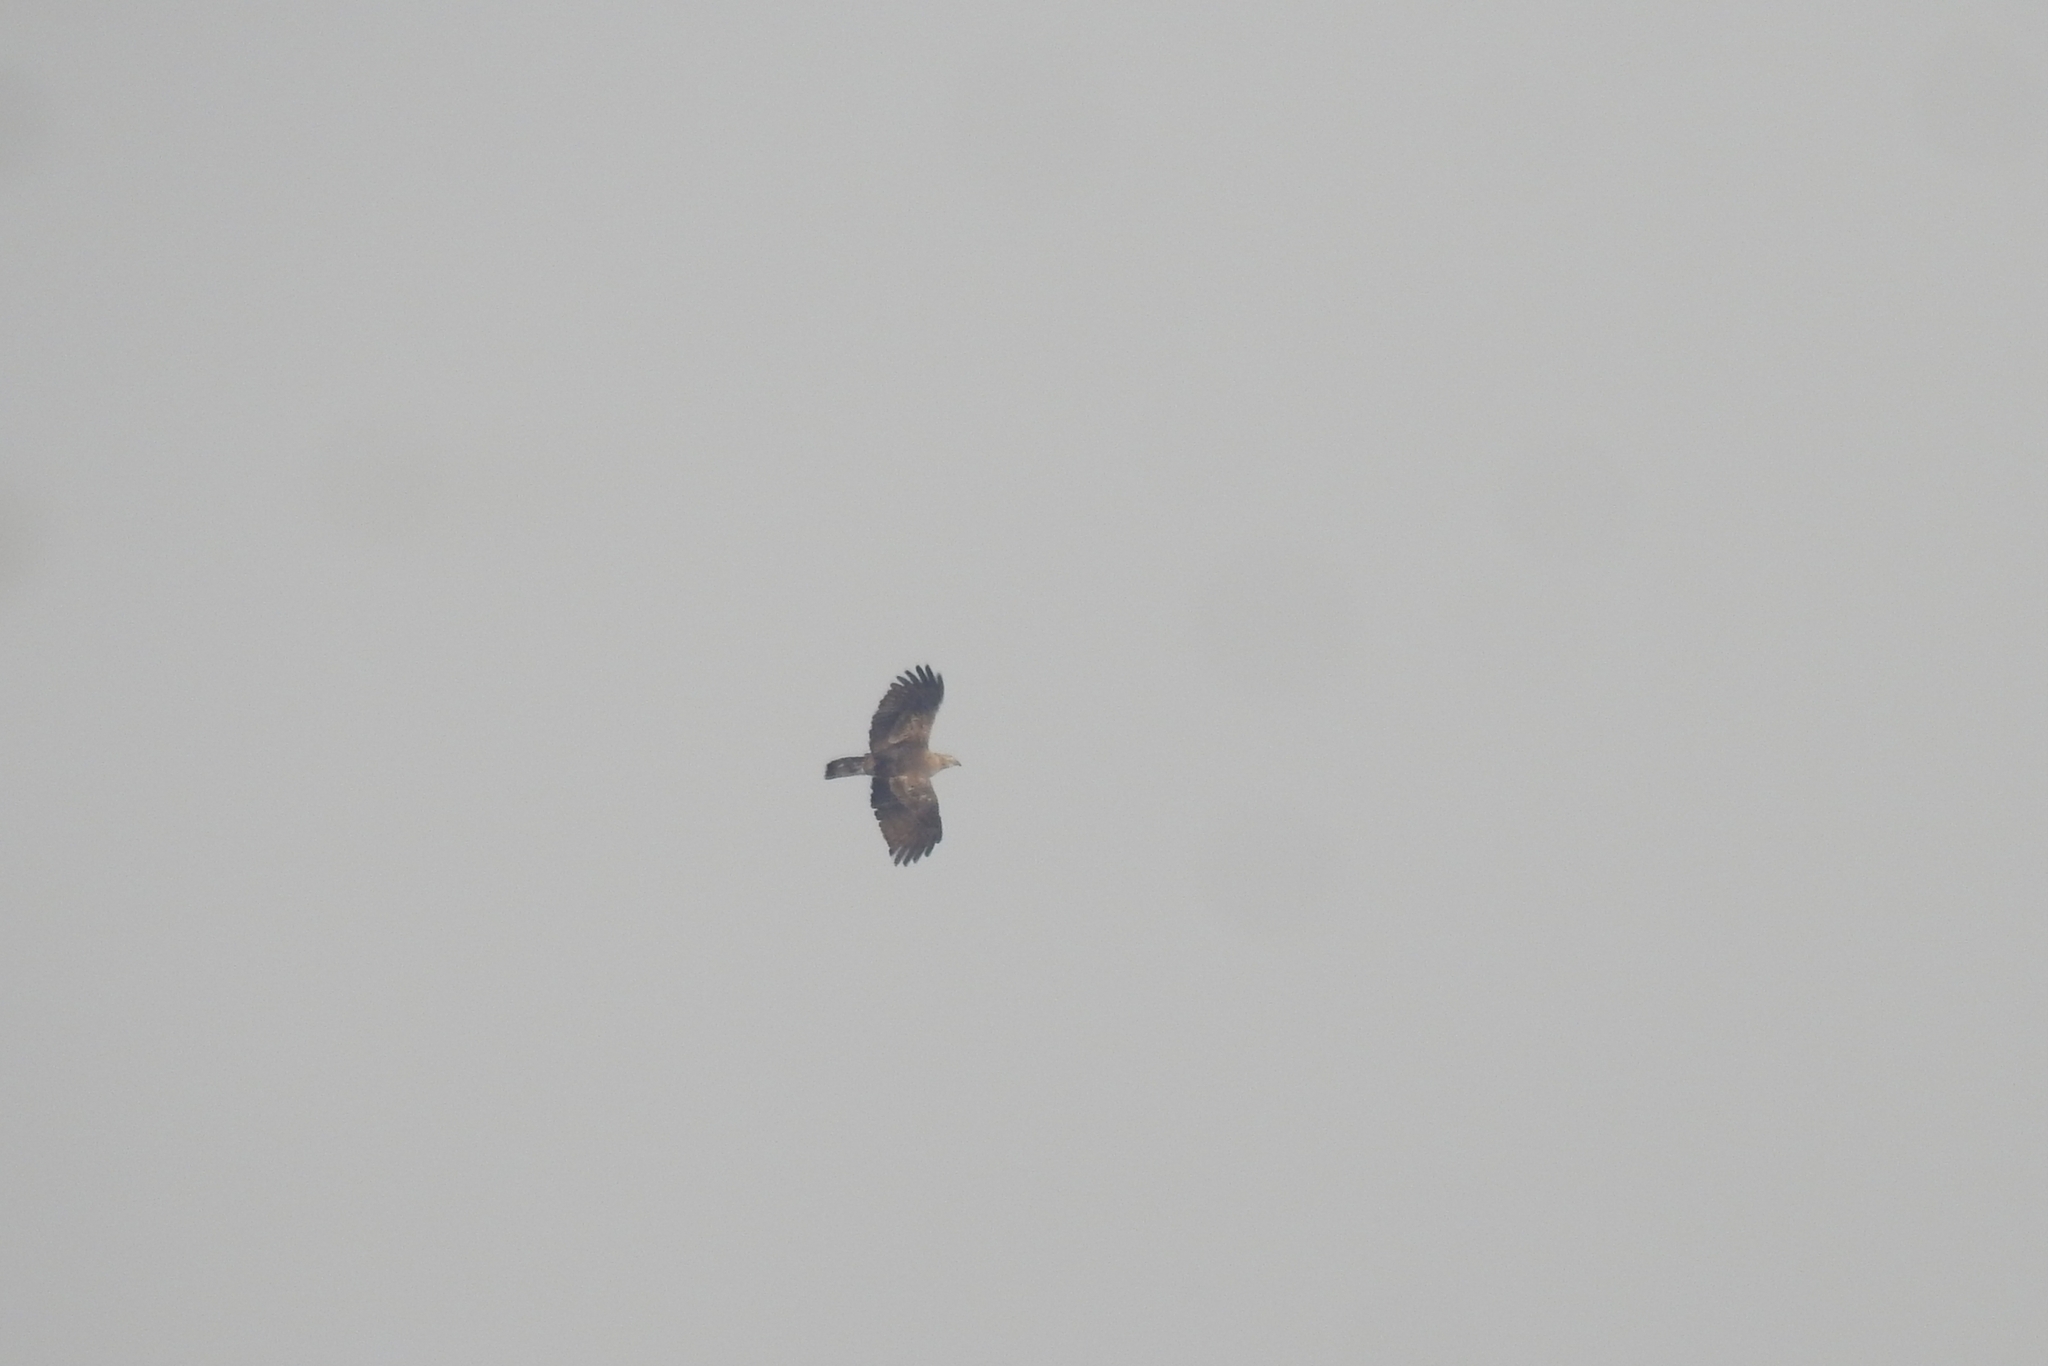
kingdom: Animalia
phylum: Chordata
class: Aves
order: Accipitriformes
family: Accipitridae
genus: Pernis
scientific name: Pernis ptilorhynchus
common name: Crested honey buzzard
